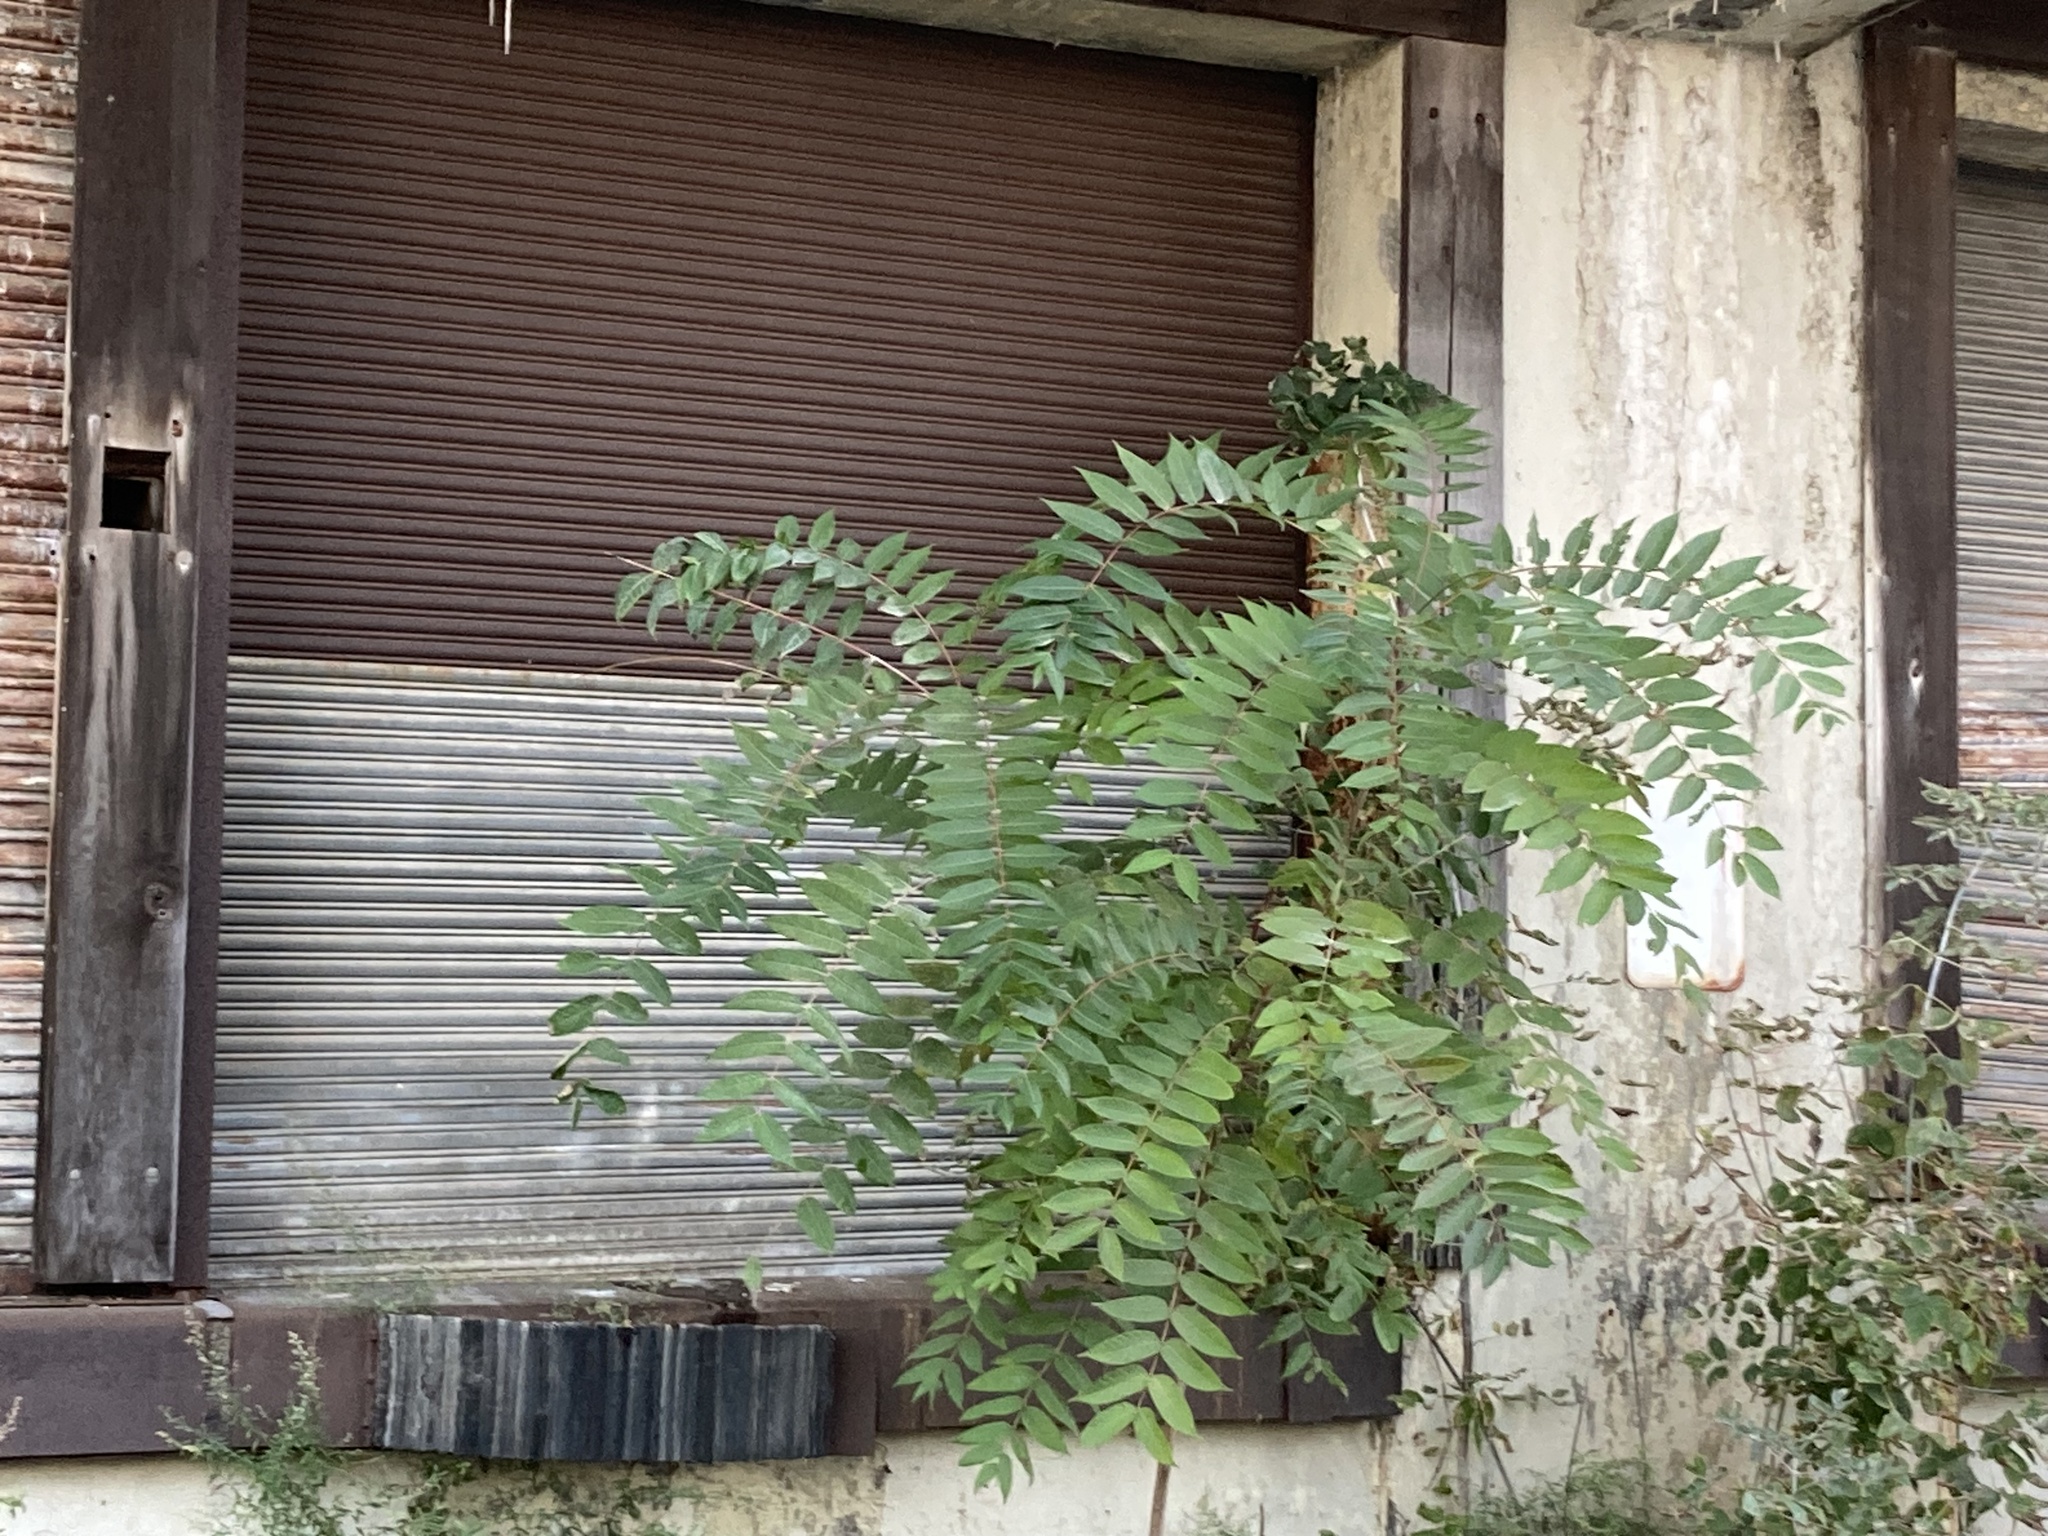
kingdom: Plantae
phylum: Tracheophyta
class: Magnoliopsida
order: Sapindales
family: Simaroubaceae
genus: Ailanthus
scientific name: Ailanthus altissima
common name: Tree-of-heaven
